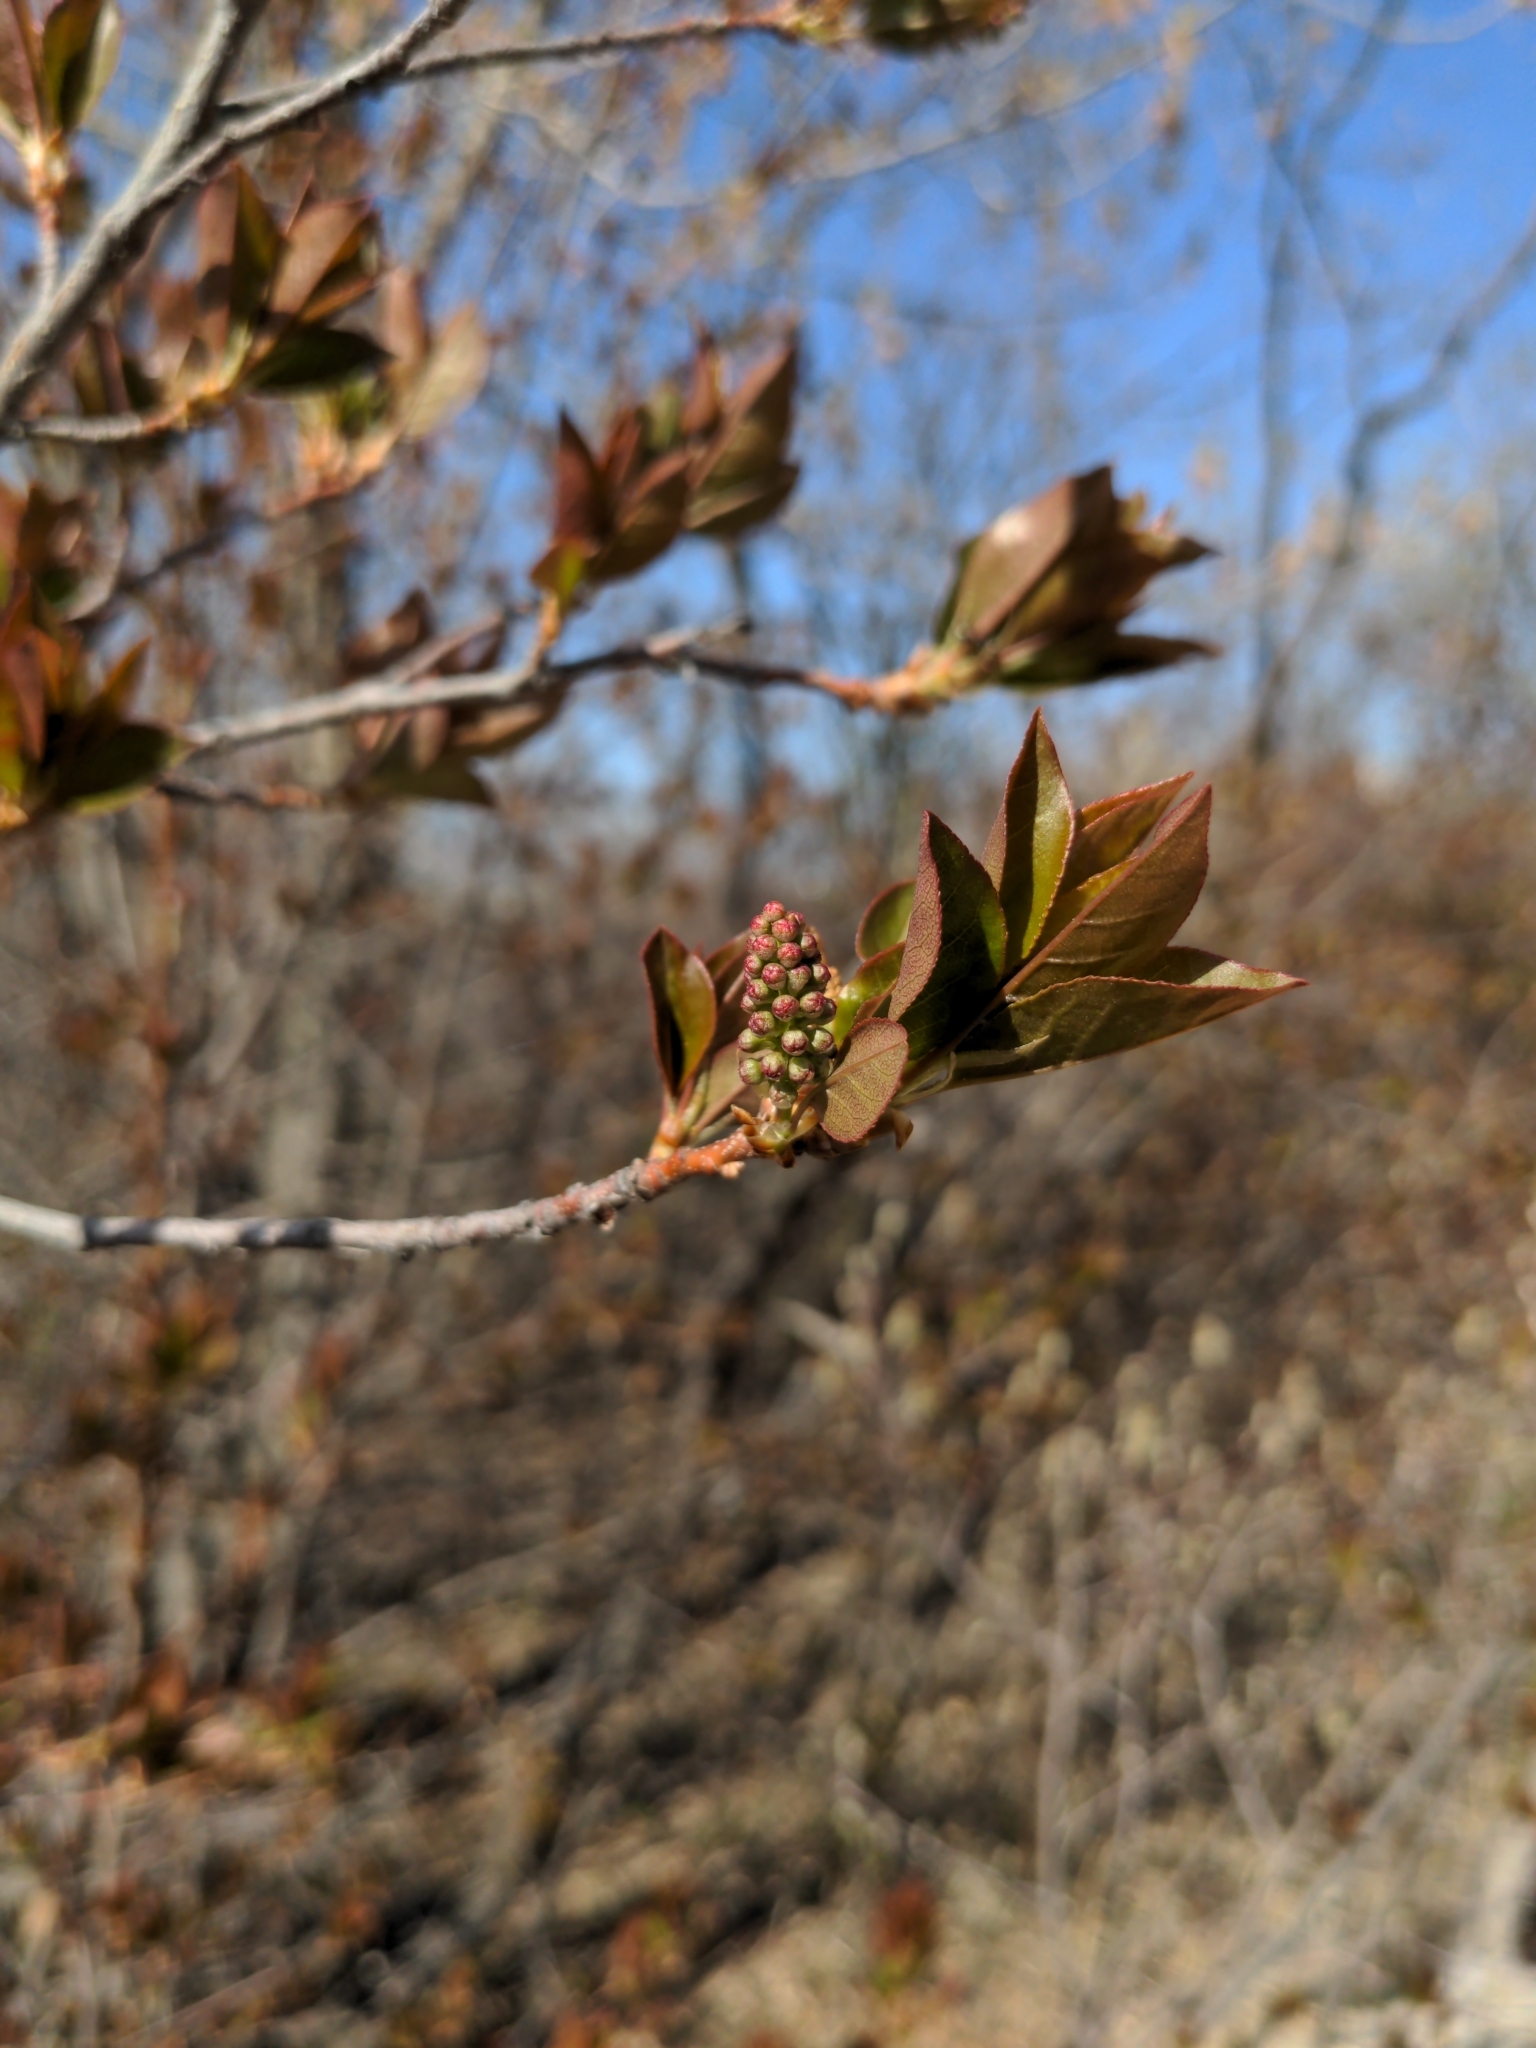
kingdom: Plantae
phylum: Tracheophyta
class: Magnoliopsida
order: Rosales
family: Rosaceae
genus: Prunus
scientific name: Prunus virginiana
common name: Chokecherry
